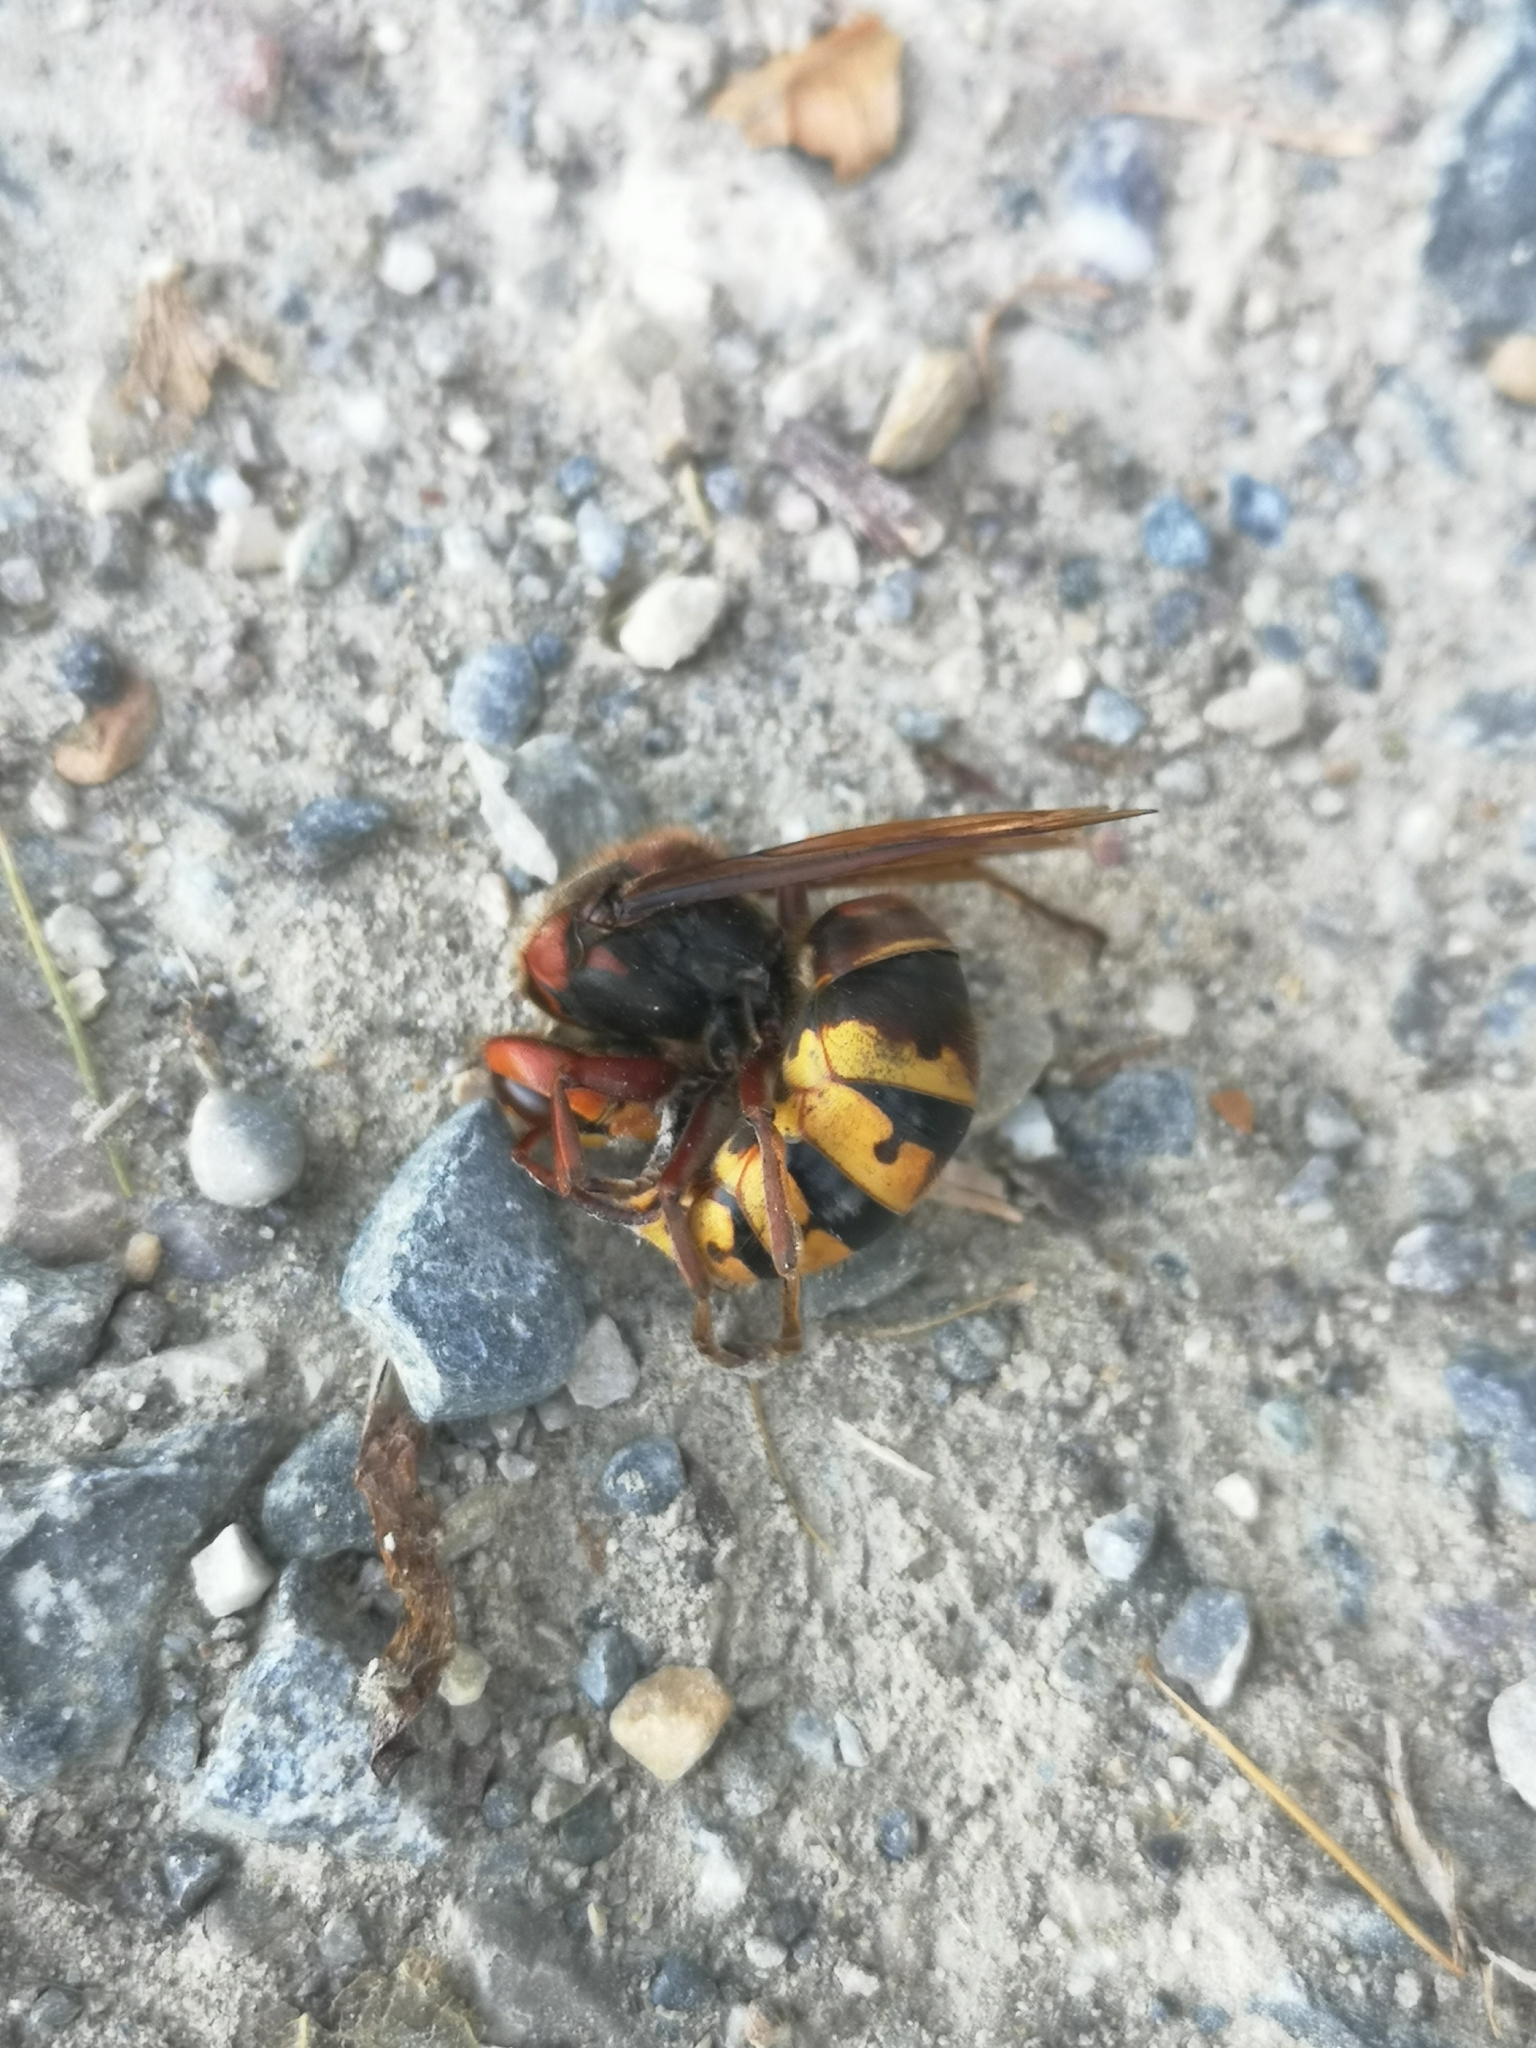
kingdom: Animalia
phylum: Arthropoda
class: Insecta
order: Hymenoptera
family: Vespidae
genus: Vespa
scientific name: Vespa crabro
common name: Hornet
